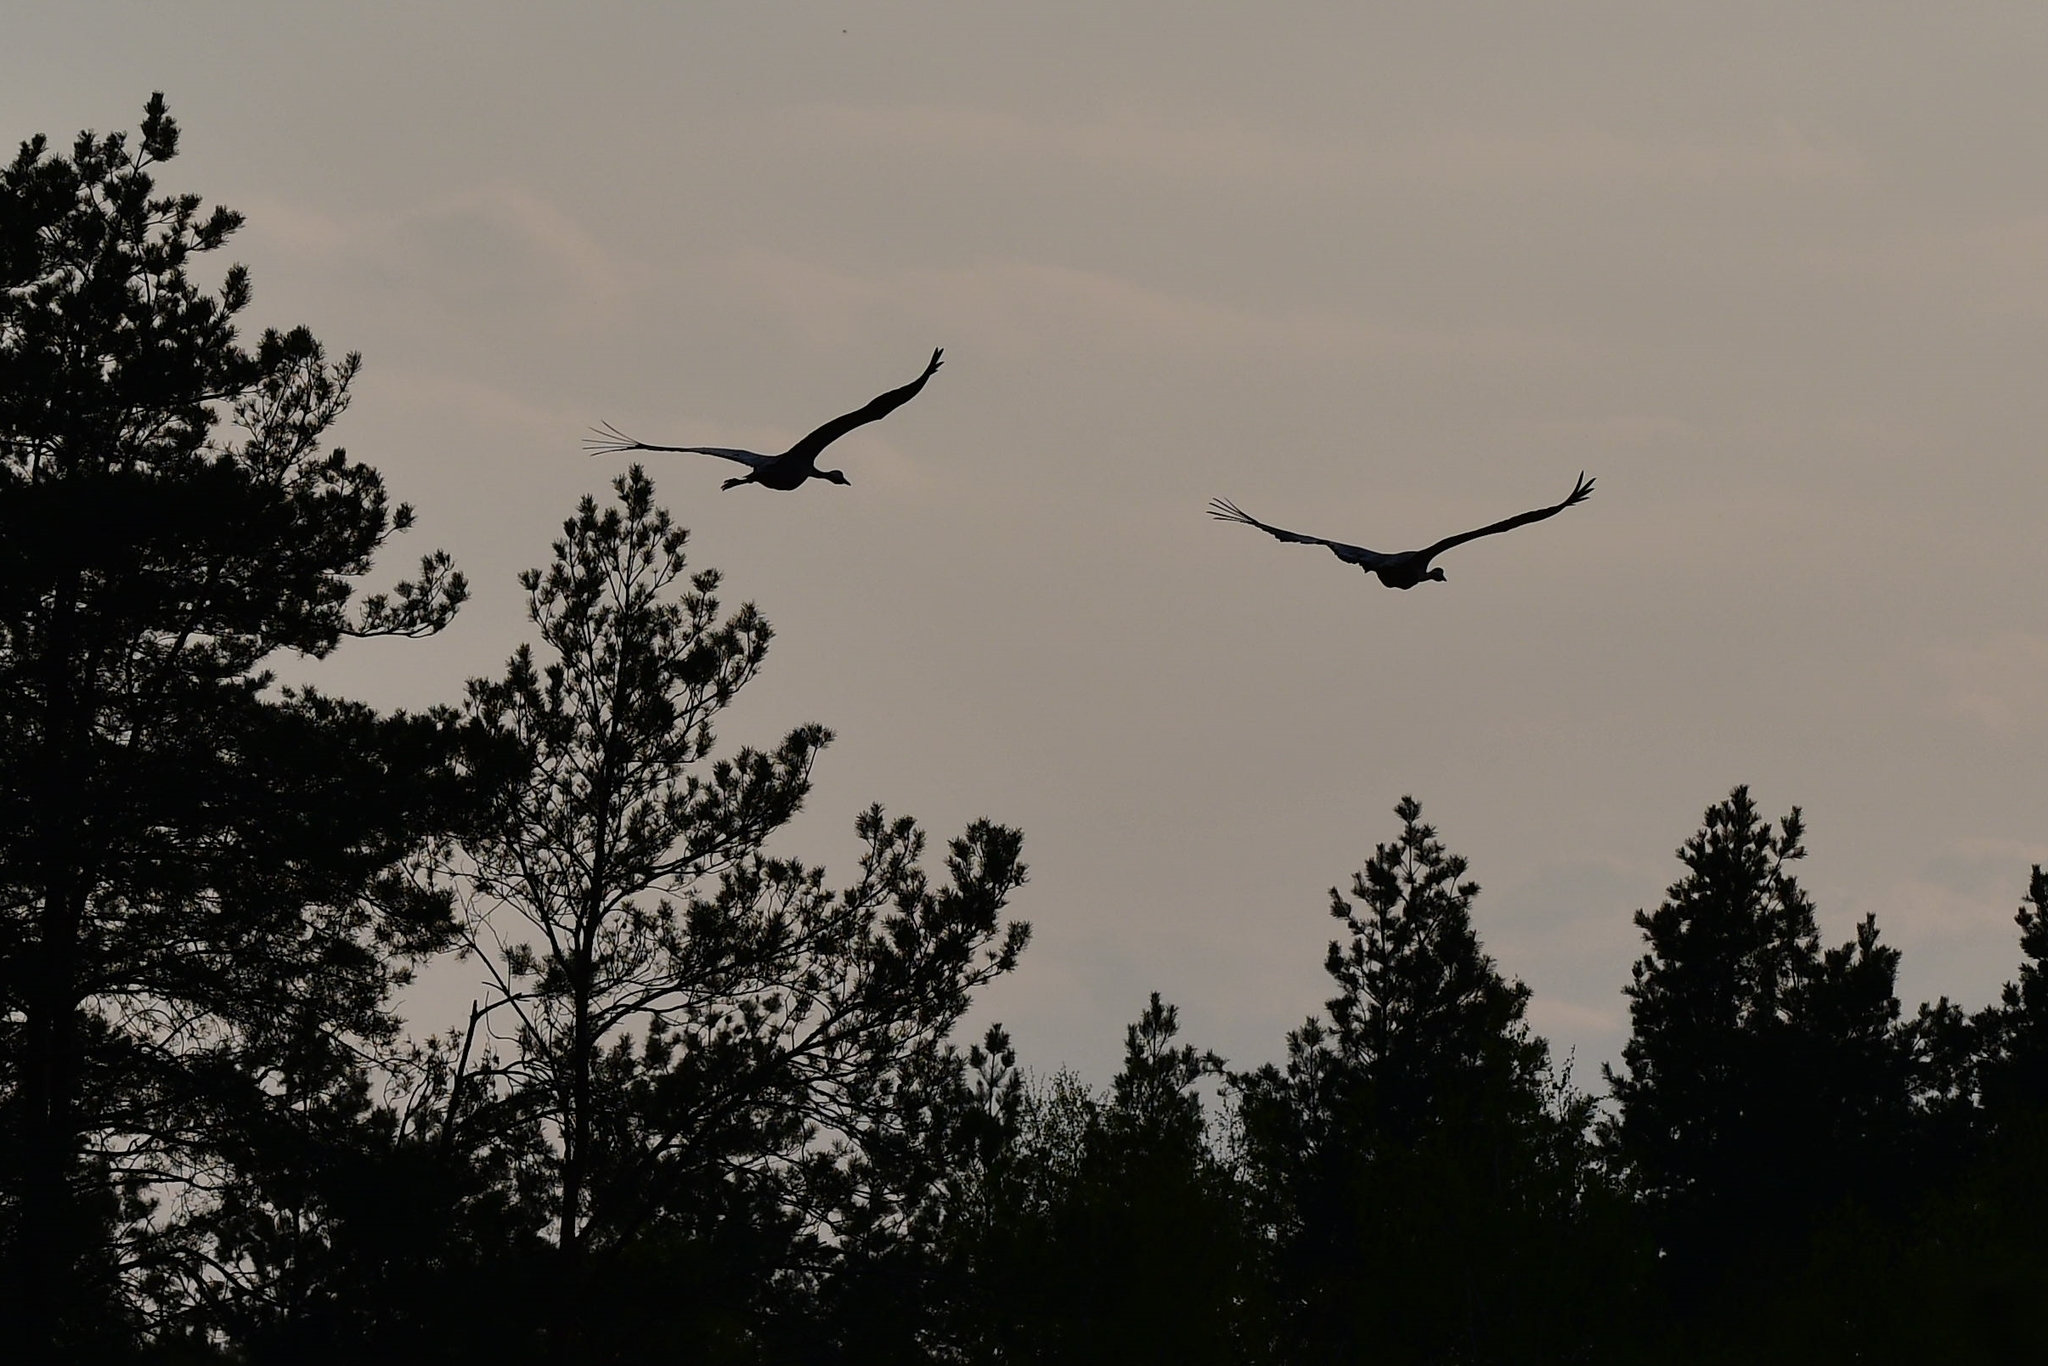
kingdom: Animalia
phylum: Chordata
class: Aves
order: Gruiformes
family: Gruidae
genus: Grus
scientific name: Grus grus
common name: Common crane
